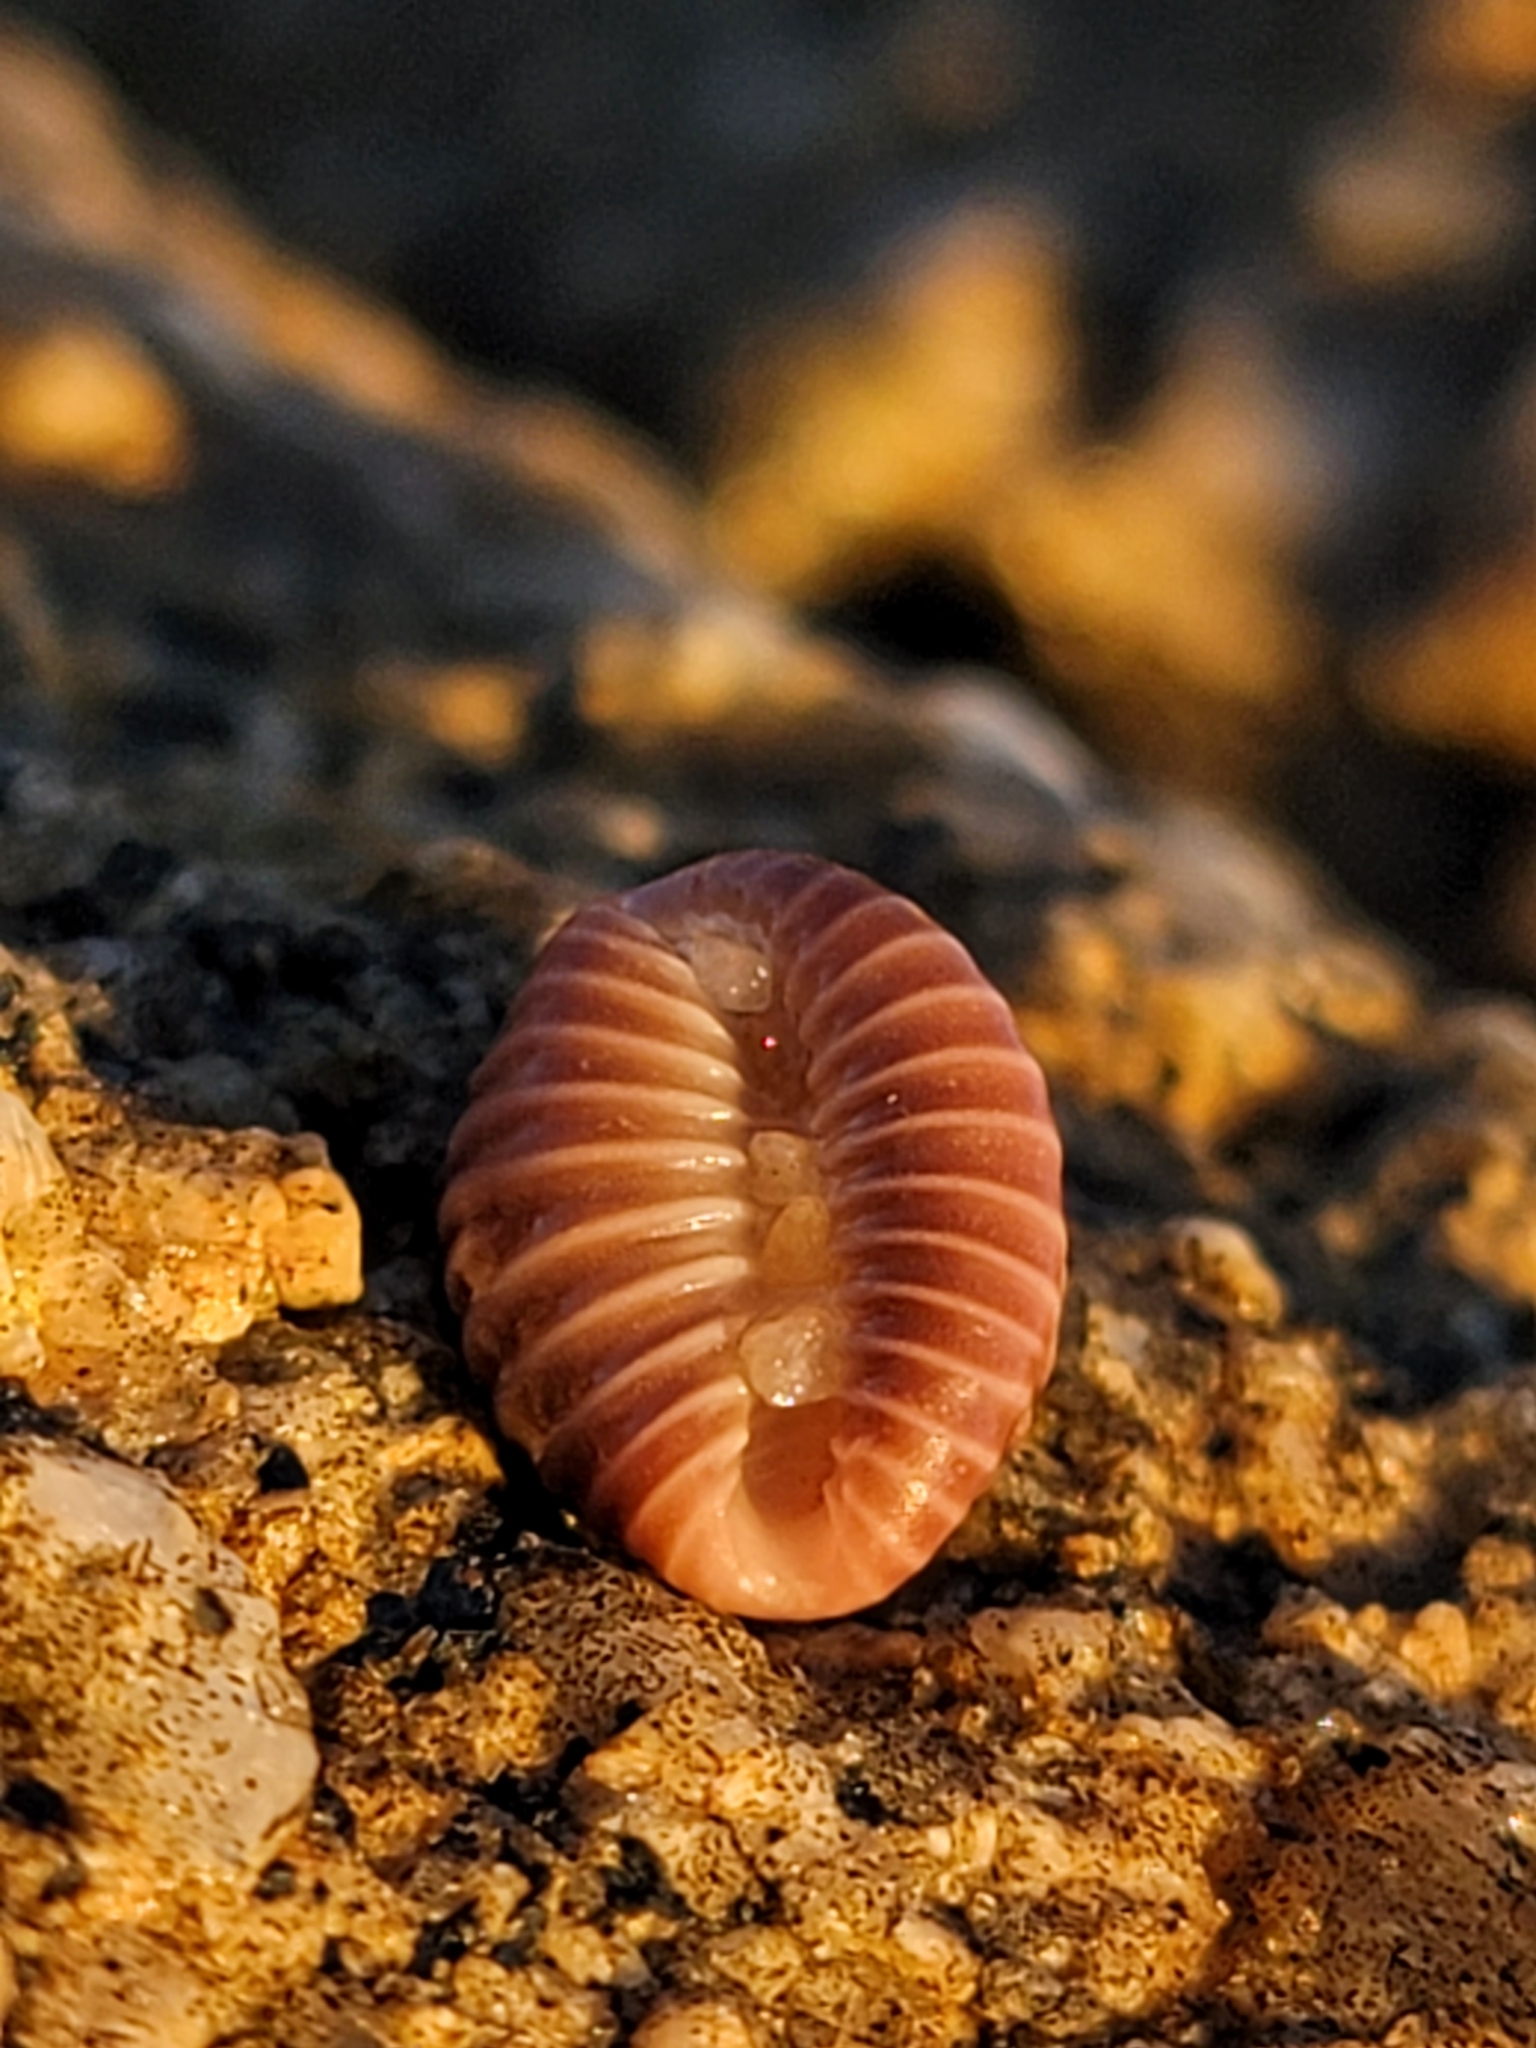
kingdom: Animalia
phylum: Mollusca
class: Gastropoda
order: Littorinimorpha
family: Triviidae
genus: Pseudopusula
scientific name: Pseudopusula californiana
